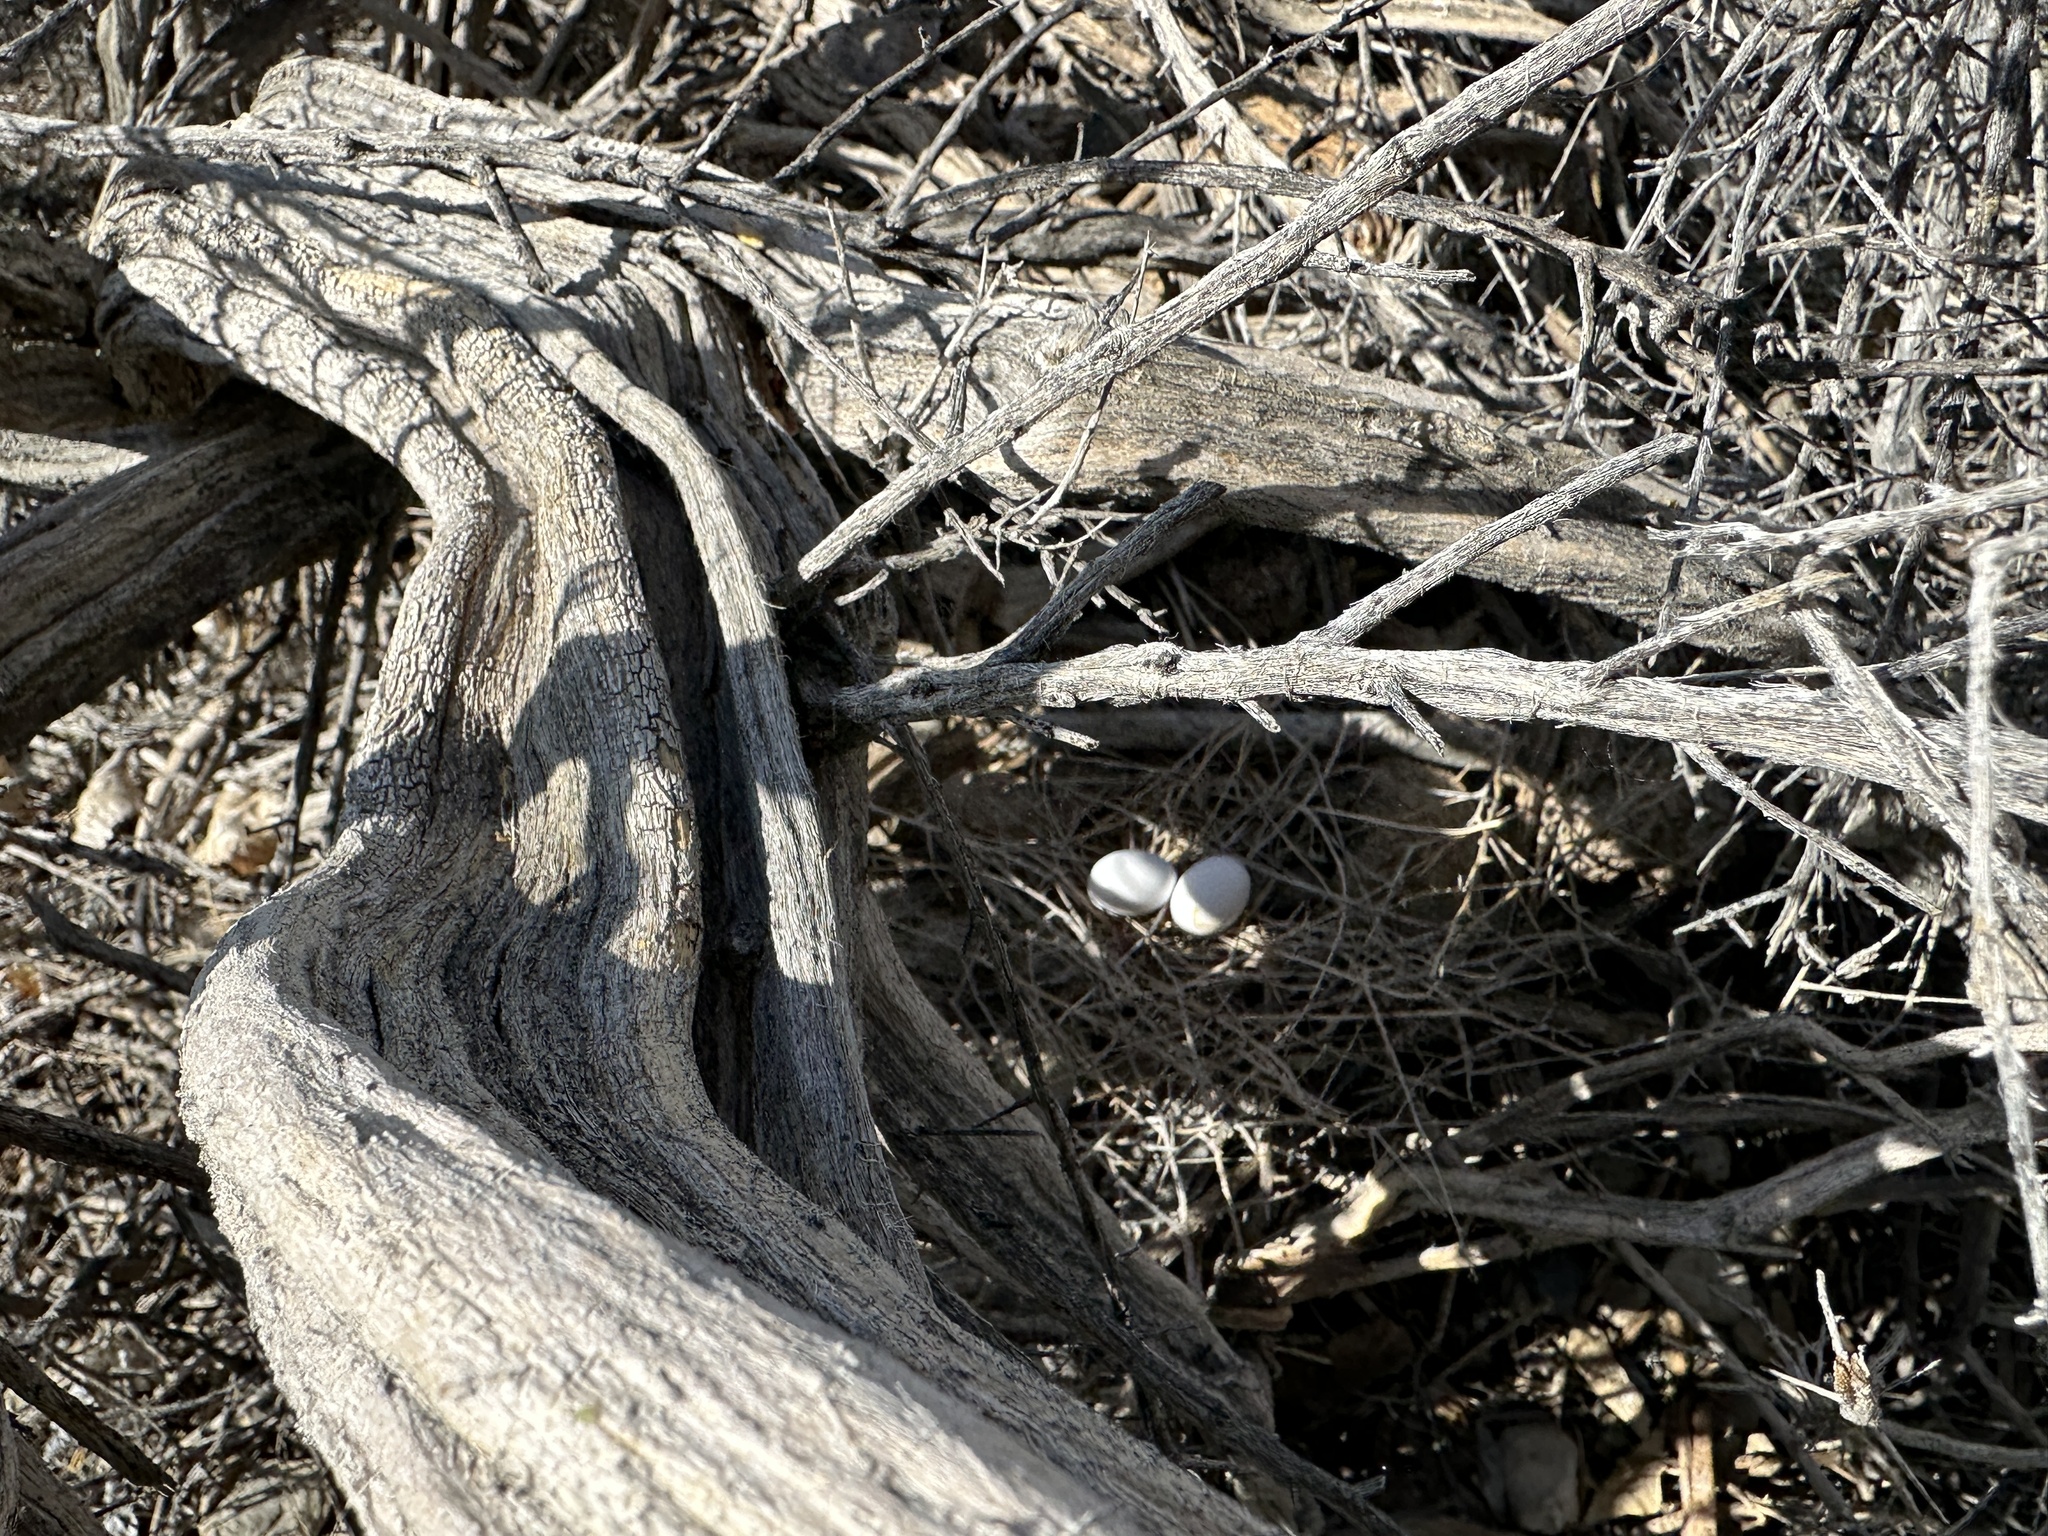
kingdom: Animalia
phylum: Chordata
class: Aves
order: Columbiformes
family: Columbidae
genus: Zenaida
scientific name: Zenaida macroura
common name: Mourning dove
